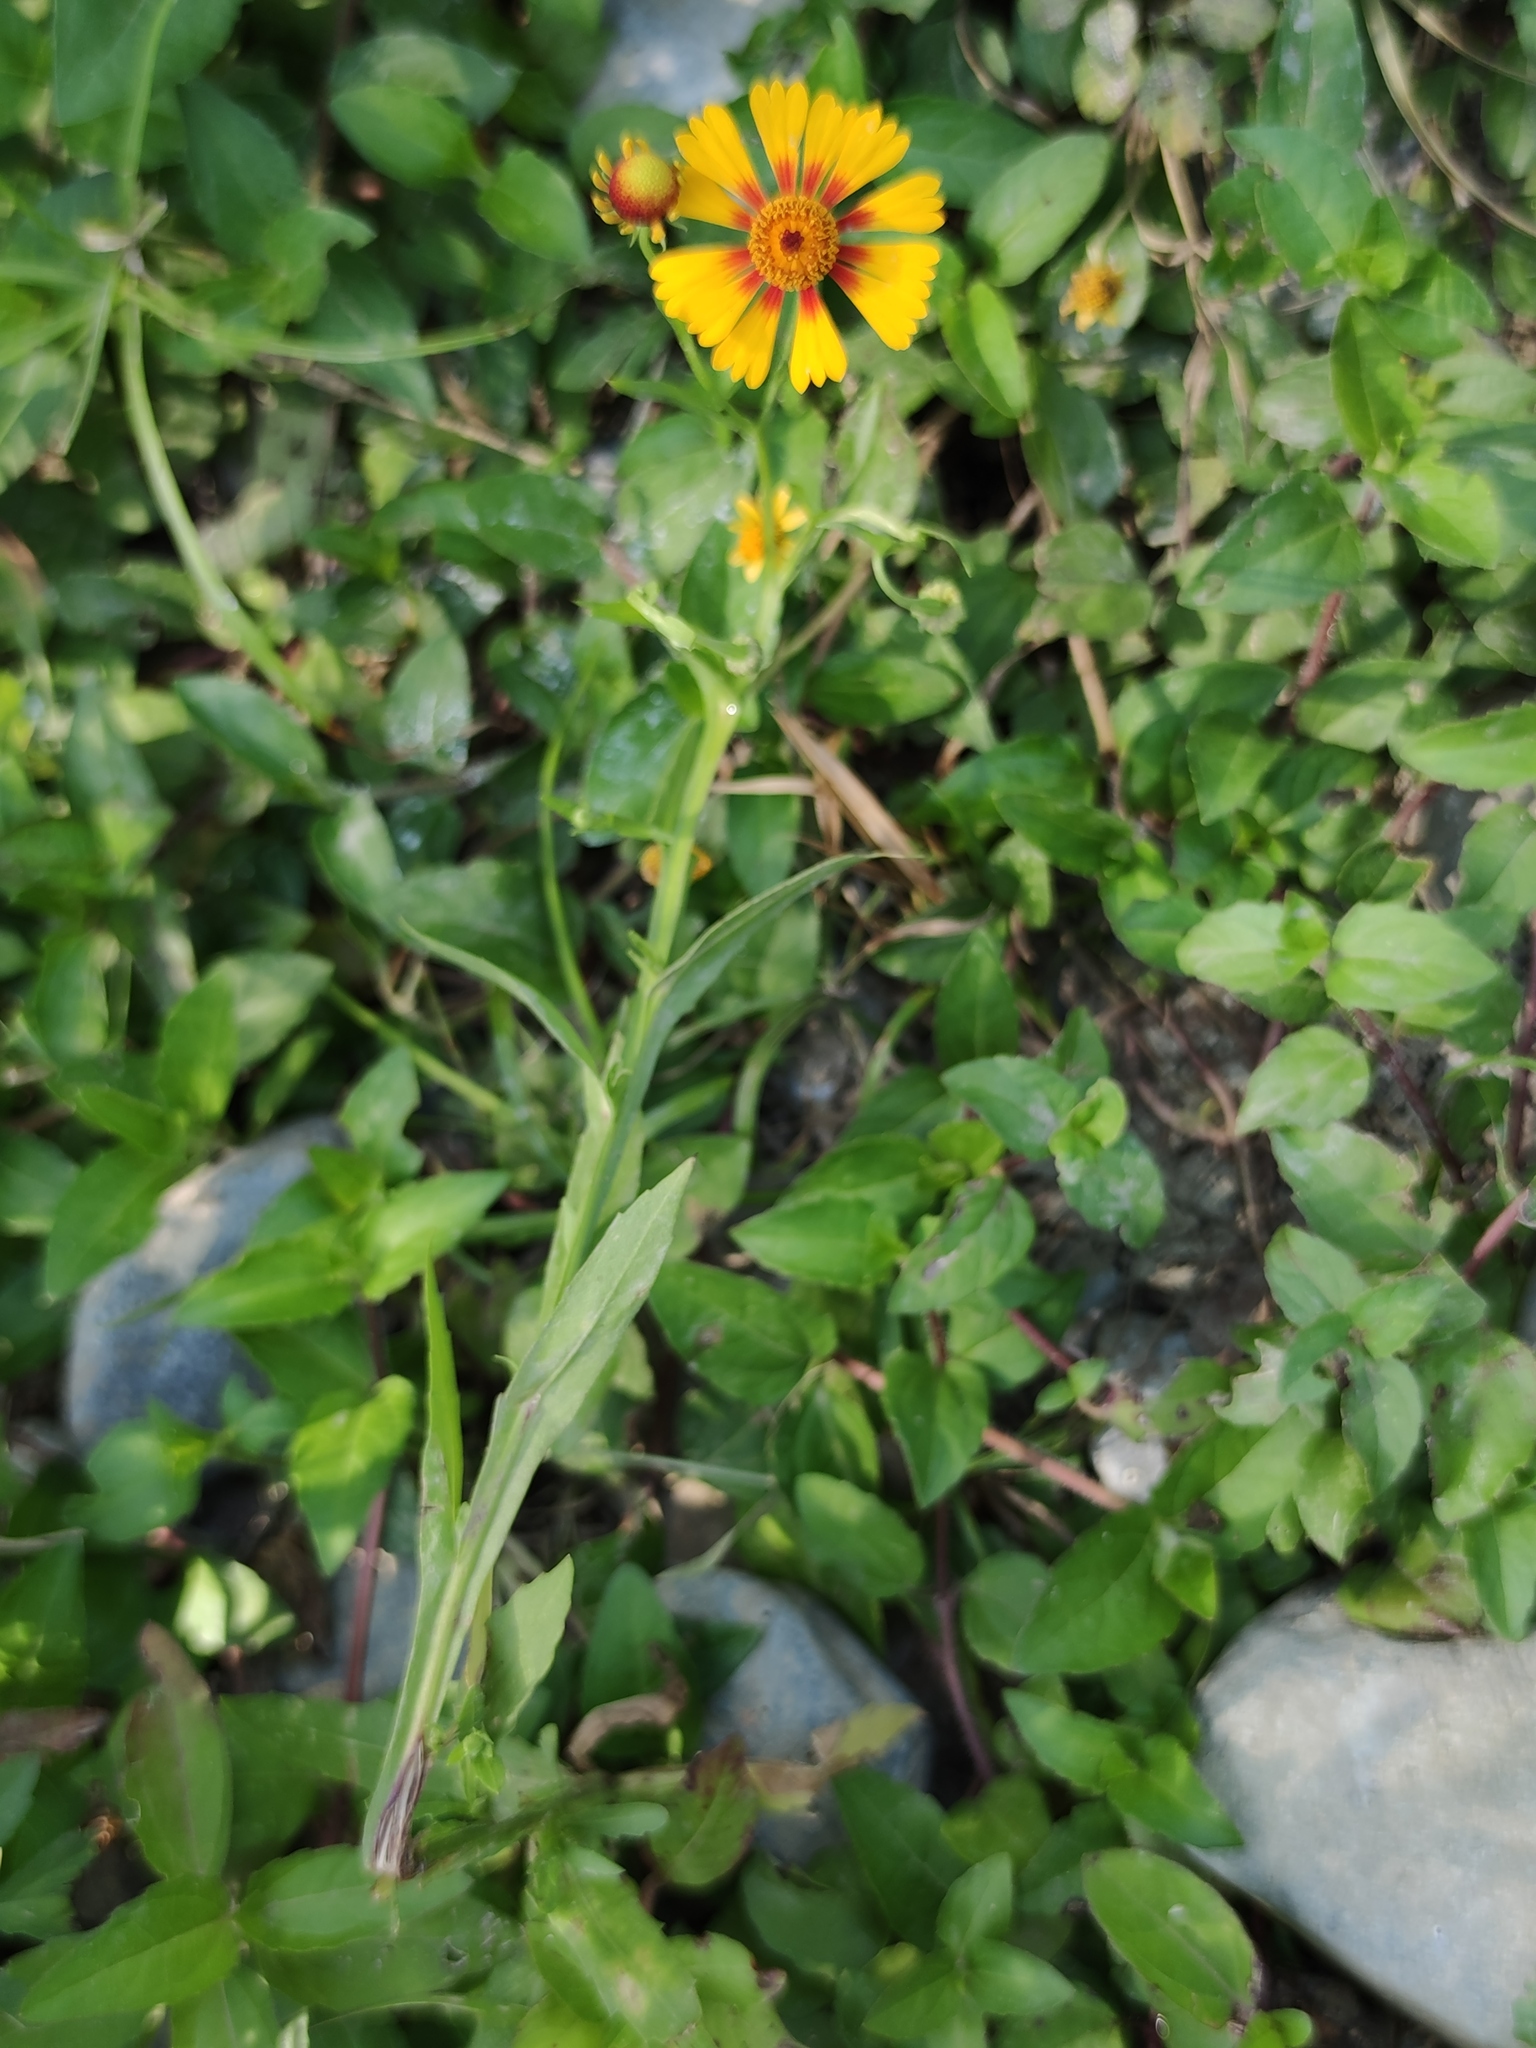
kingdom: Plantae
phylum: Tracheophyta
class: Magnoliopsida
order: Asterales
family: Asteraceae
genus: Helenium
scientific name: Helenium amphibolum
